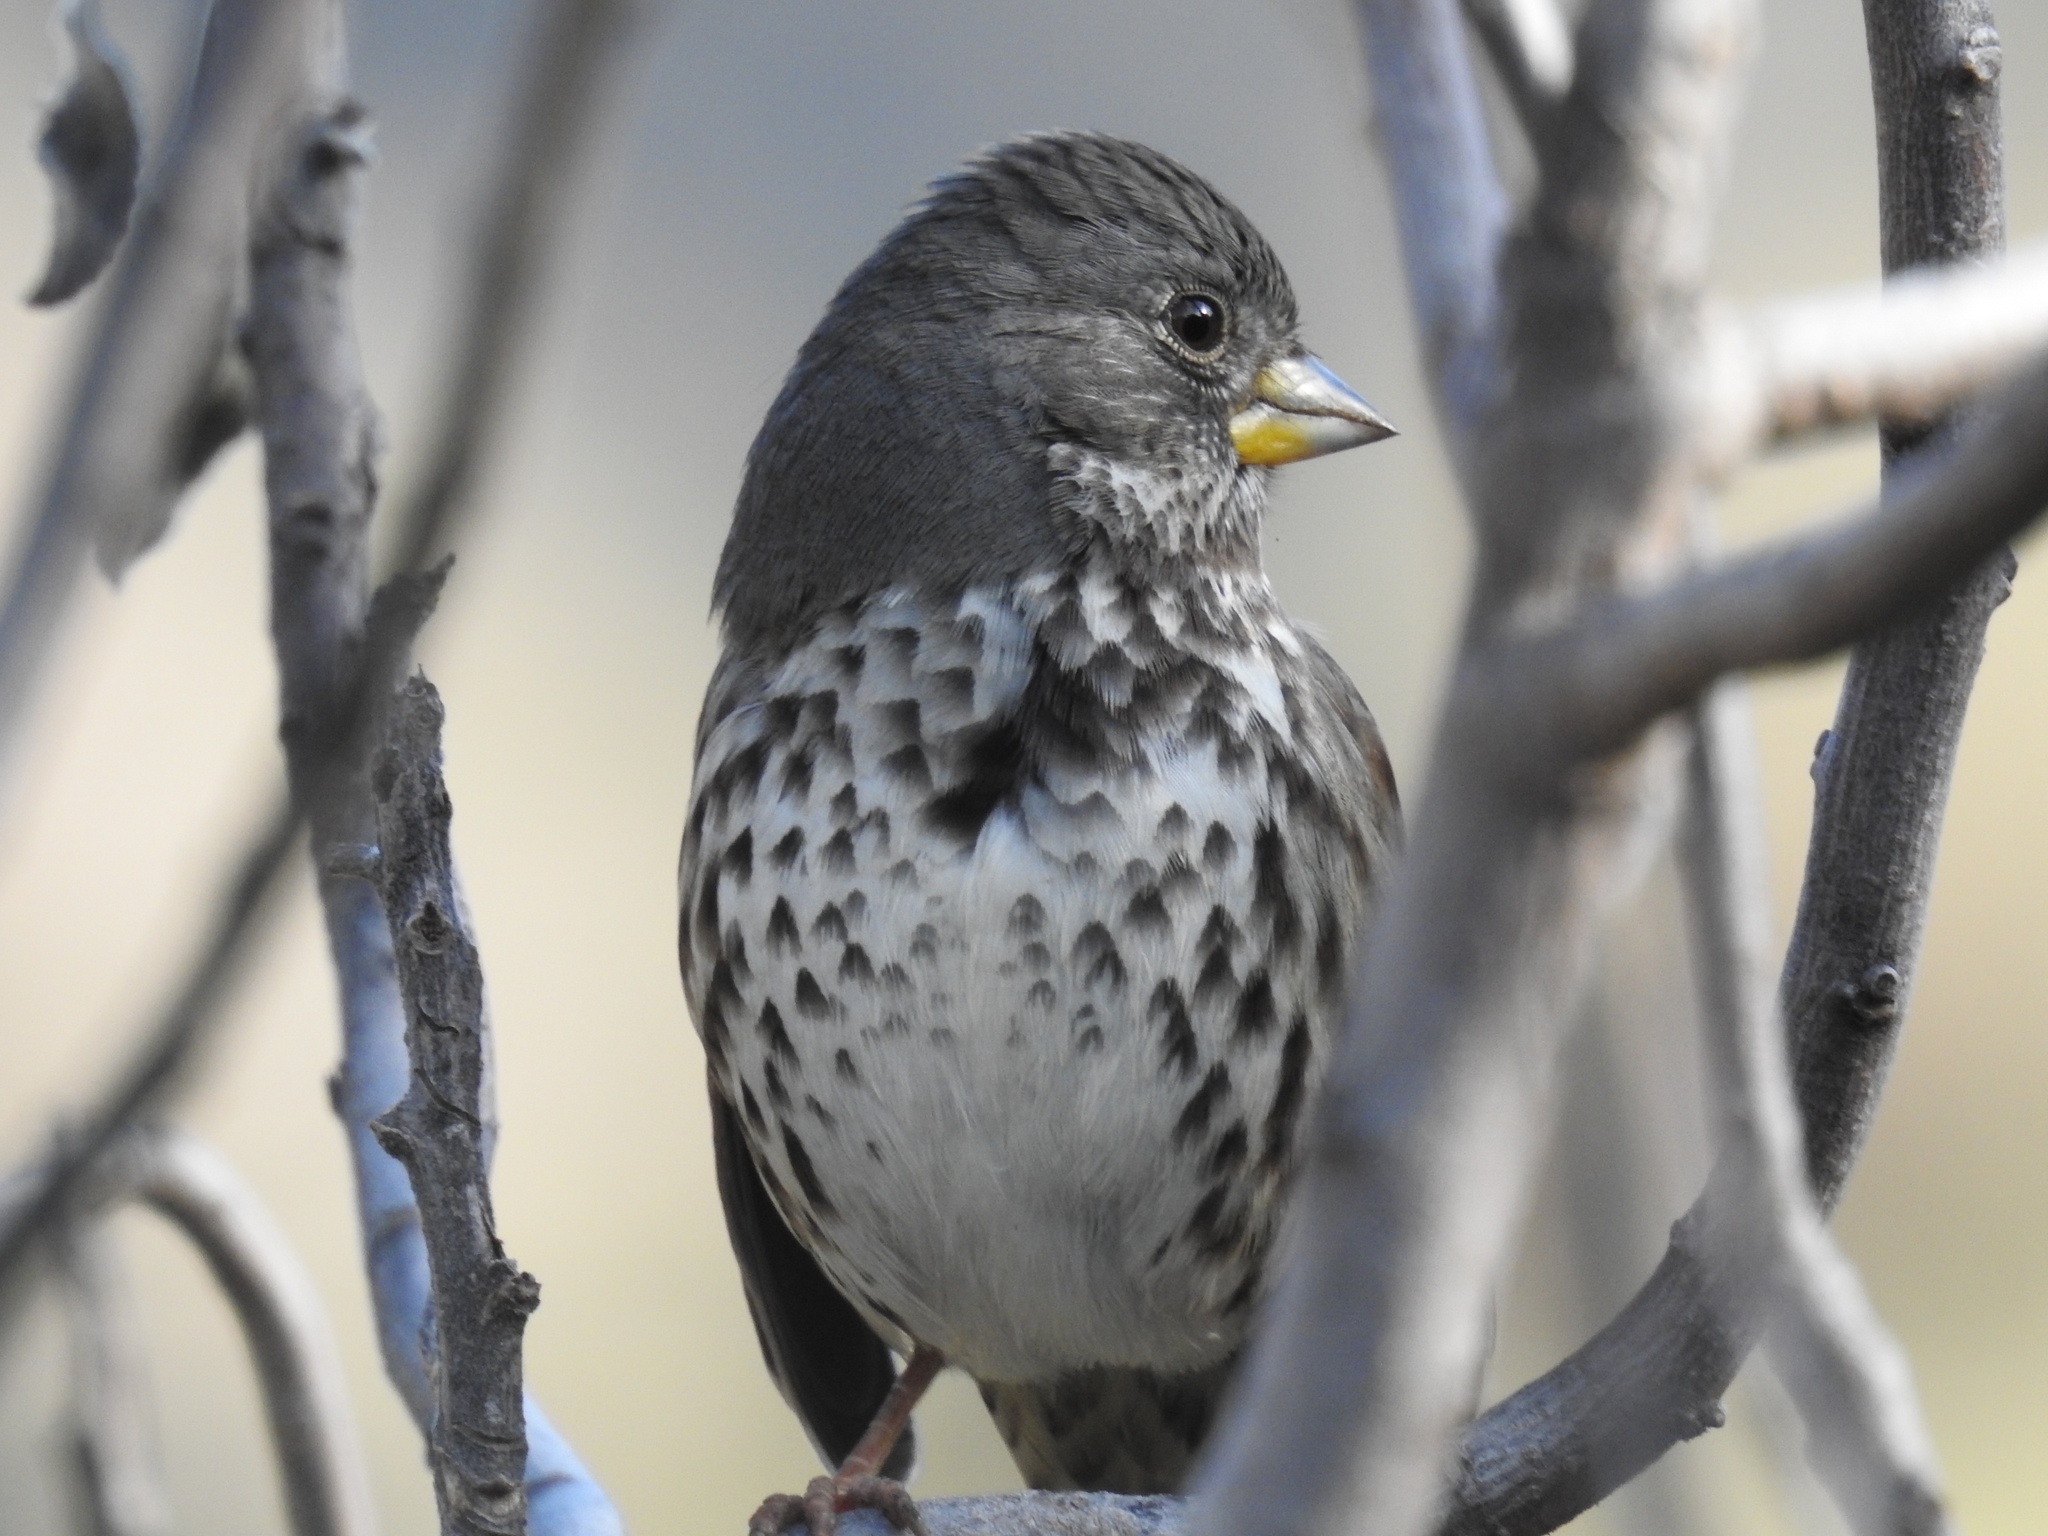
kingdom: Animalia
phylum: Chordata
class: Aves
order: Passeriformes
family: Passerellidae
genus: Passerella
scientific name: Passerella iliaca
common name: Fox sparrow
